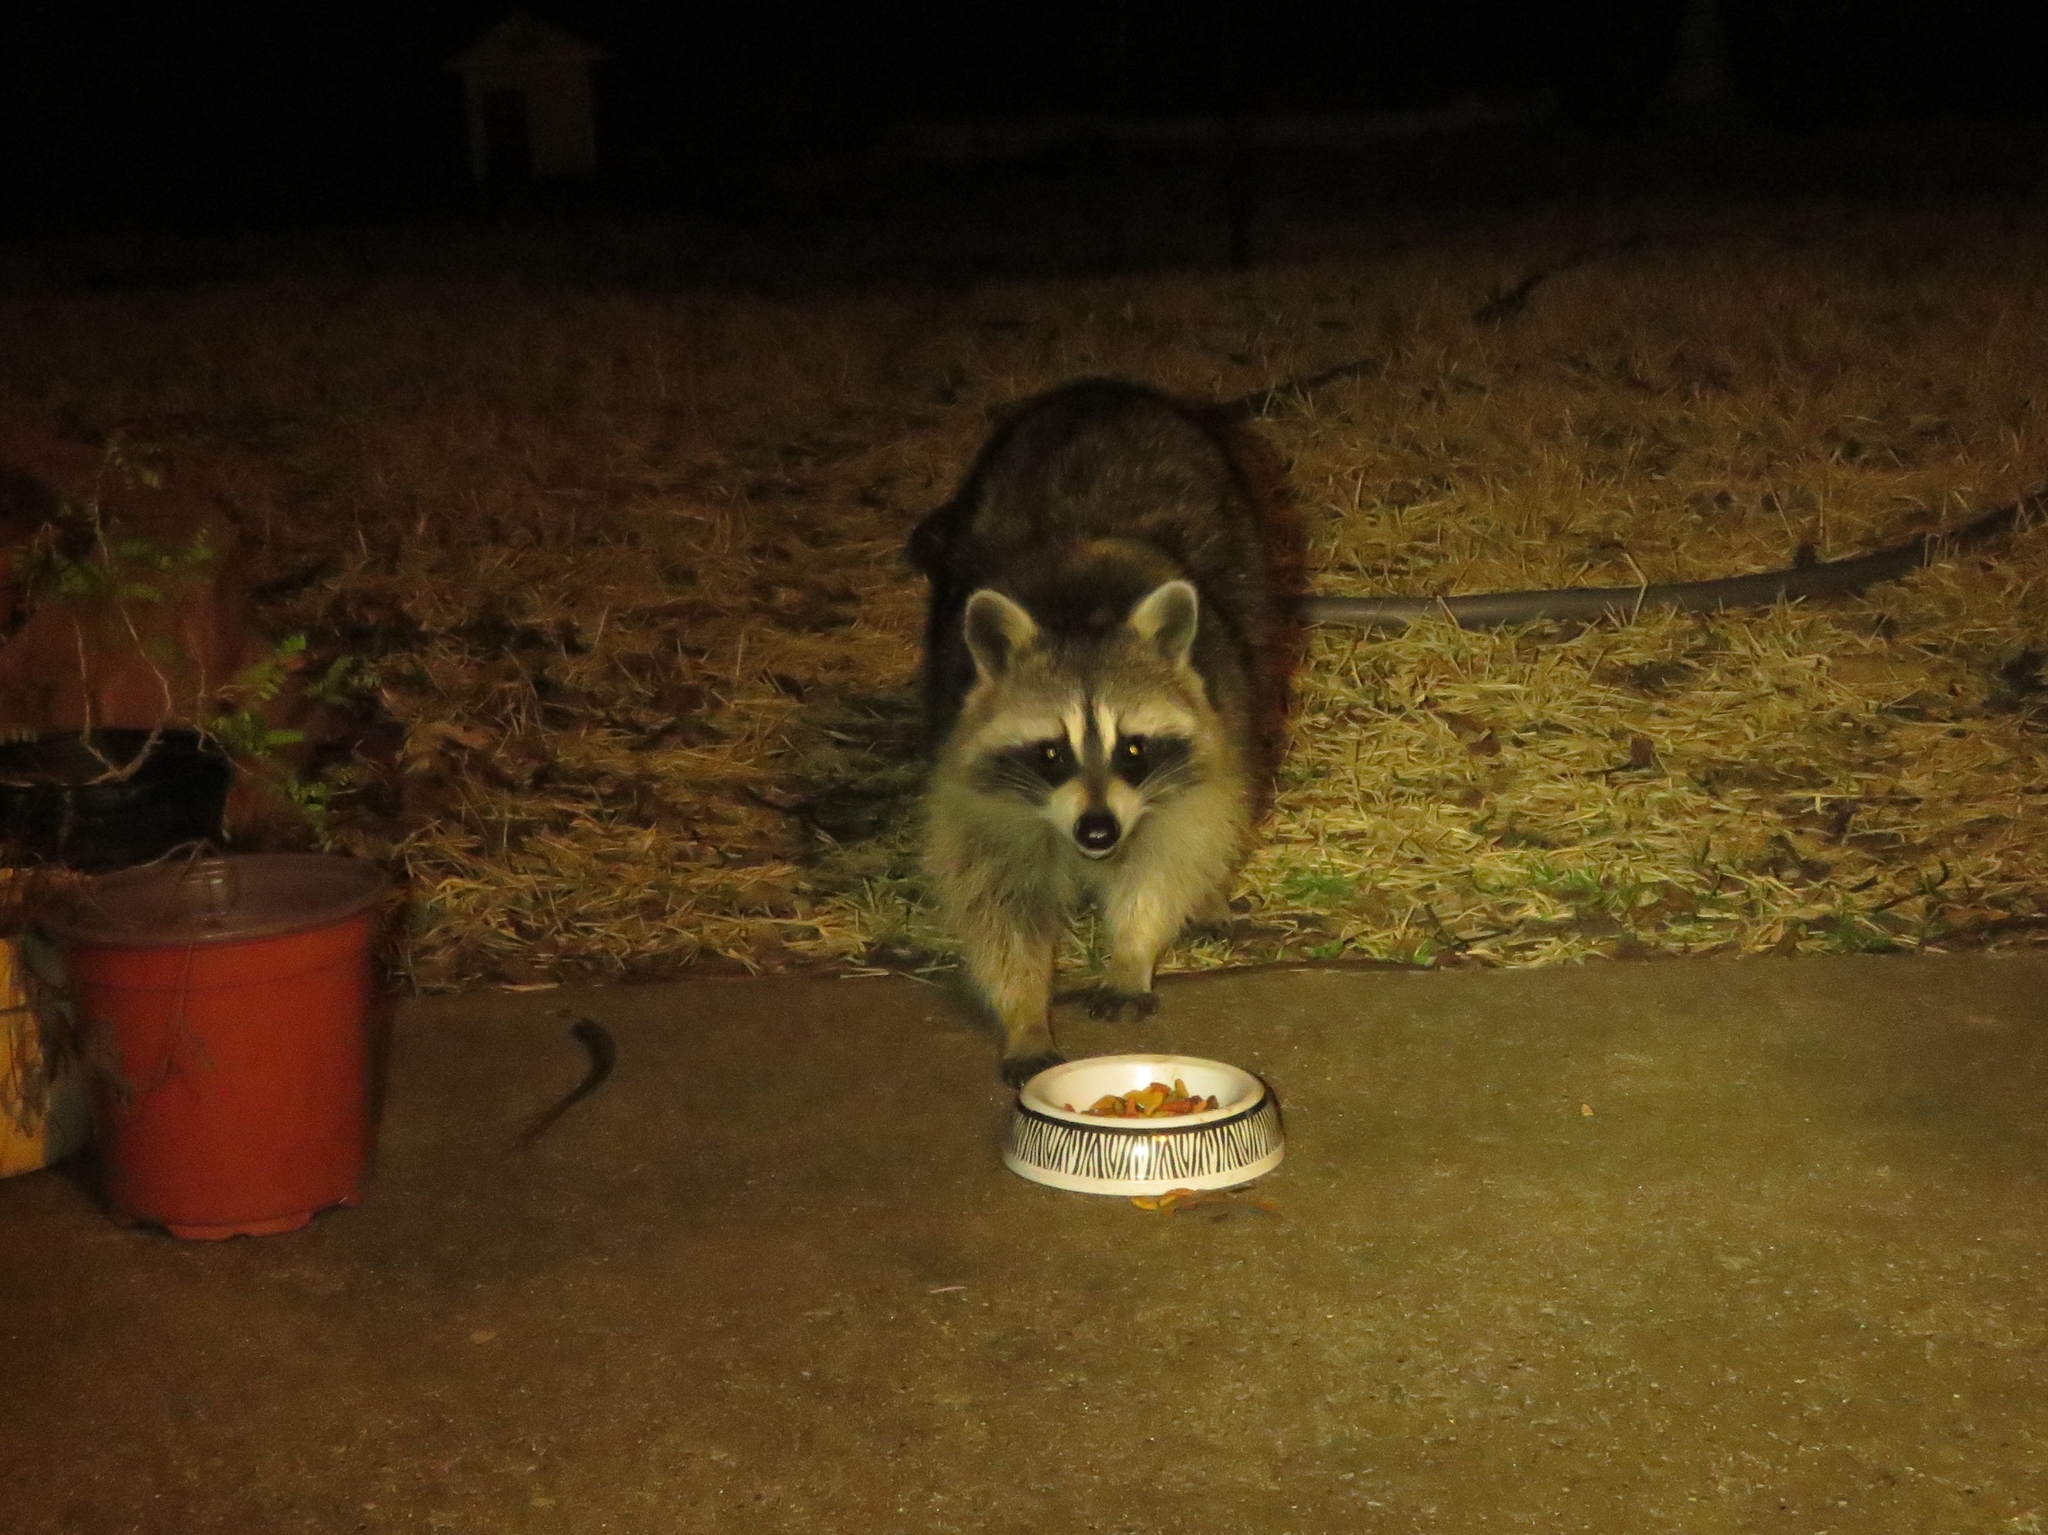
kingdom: Animalia
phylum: Chordata
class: Mammalia
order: Carnivora
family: Procyonidae
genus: Procyon
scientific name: Procyon lotor
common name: Raccoon
